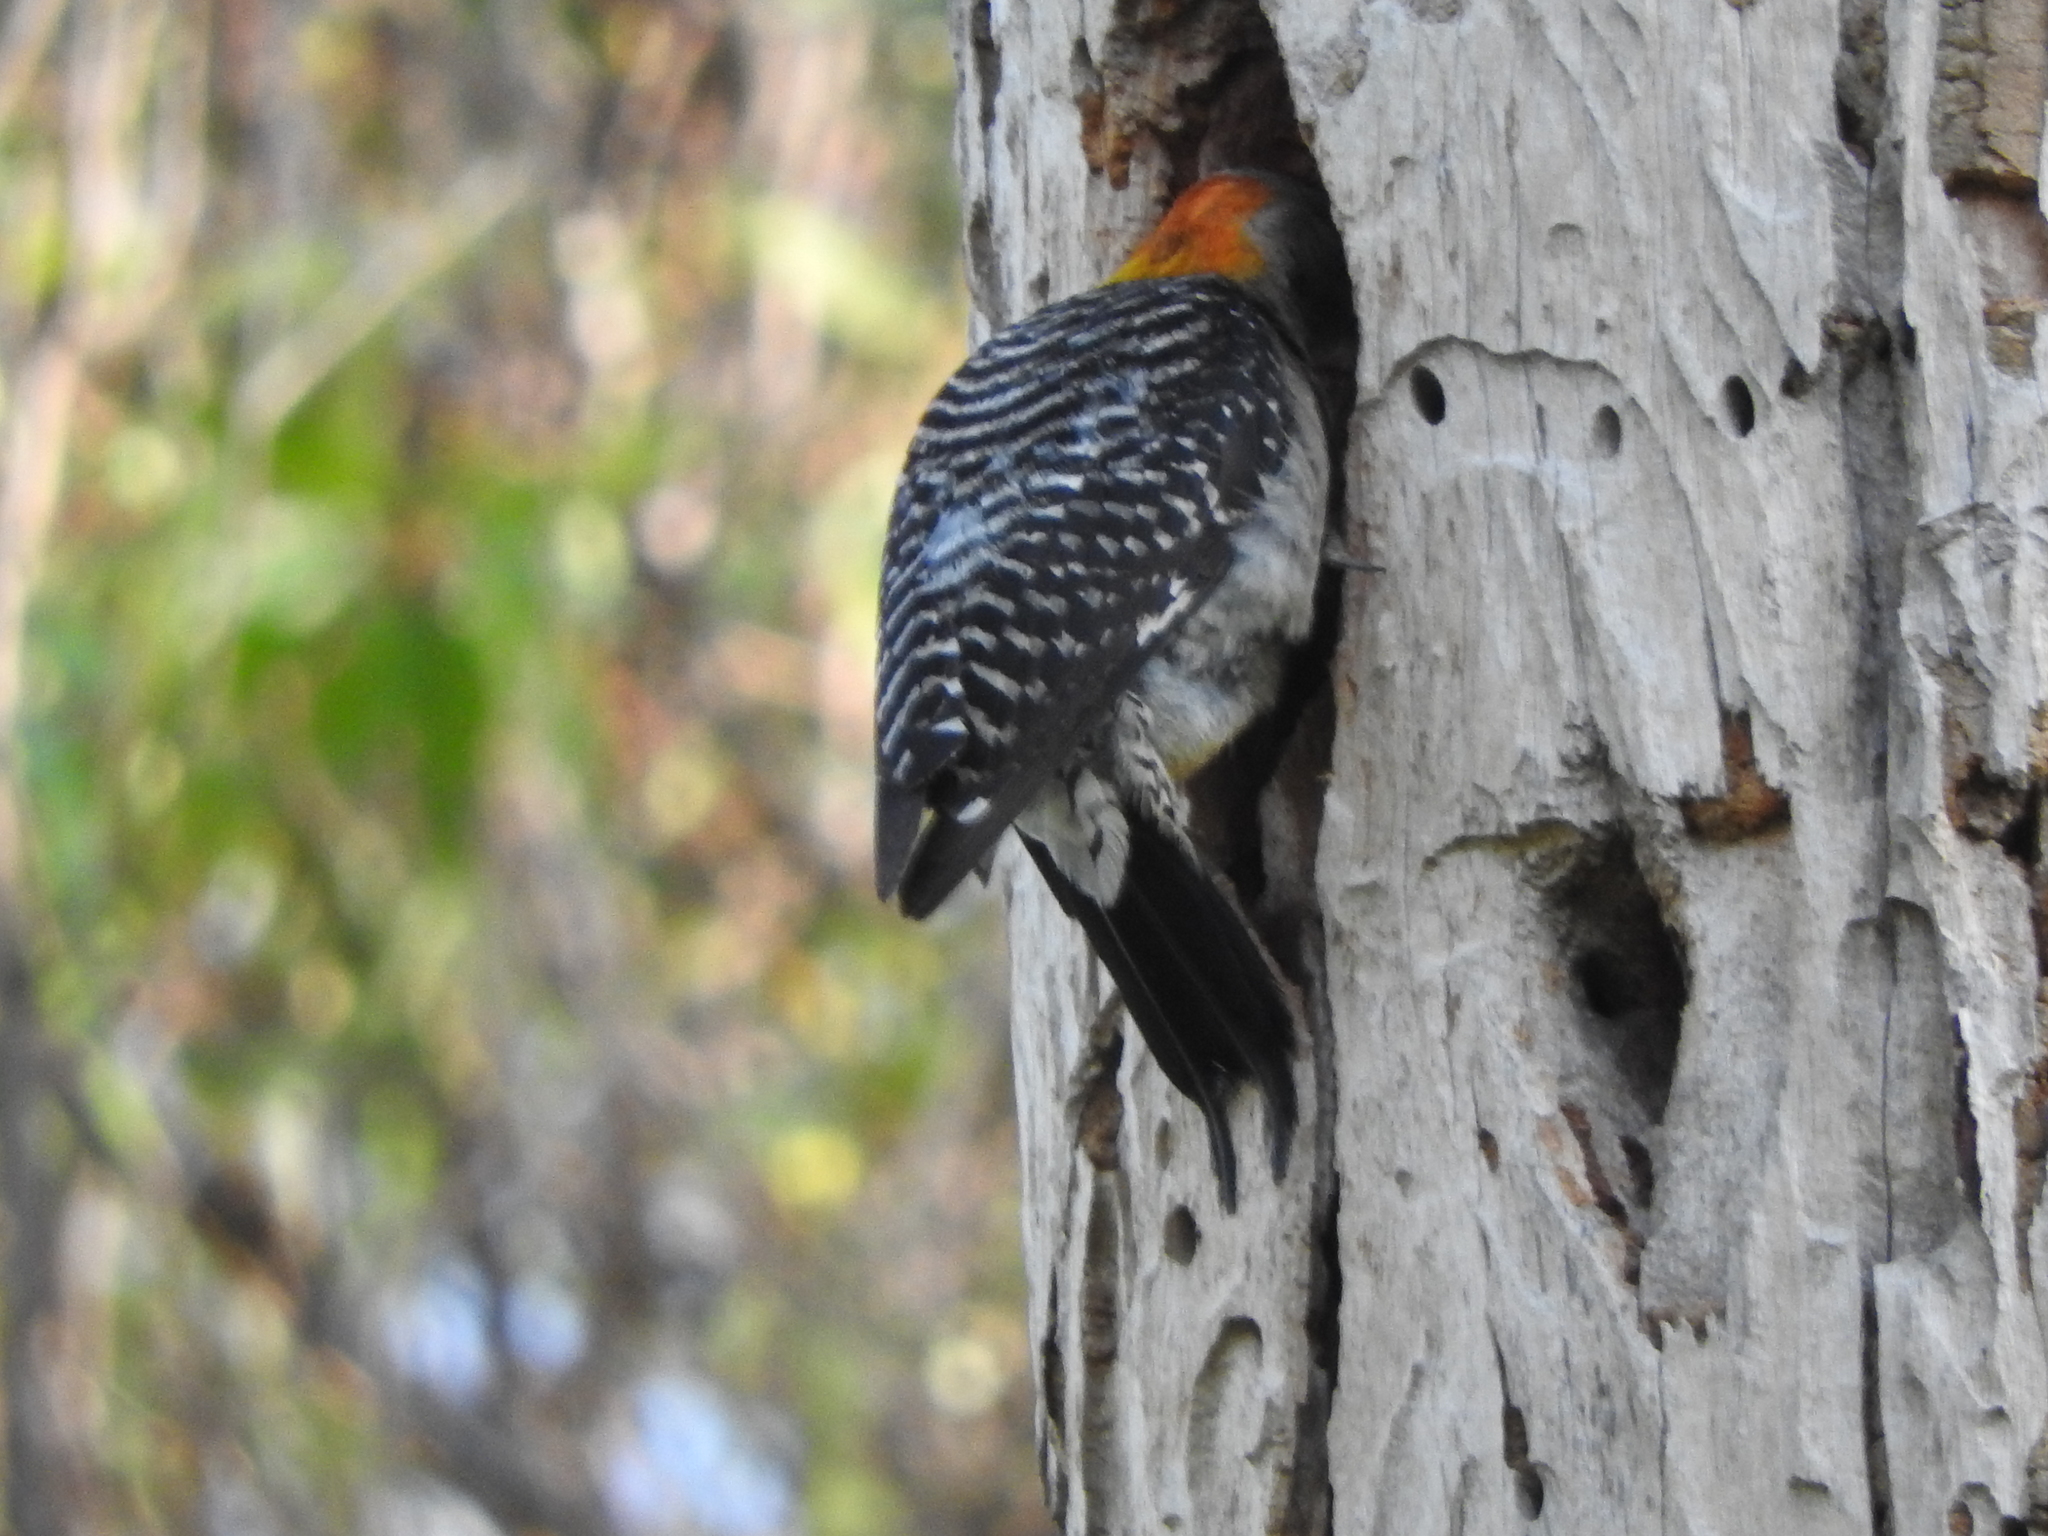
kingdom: Animalia
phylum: Chordata
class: Aves
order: Piciformes
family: Picidae
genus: Melanerpes
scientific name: Melanerpes aurifrons
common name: Golden-fronted woodpecker
